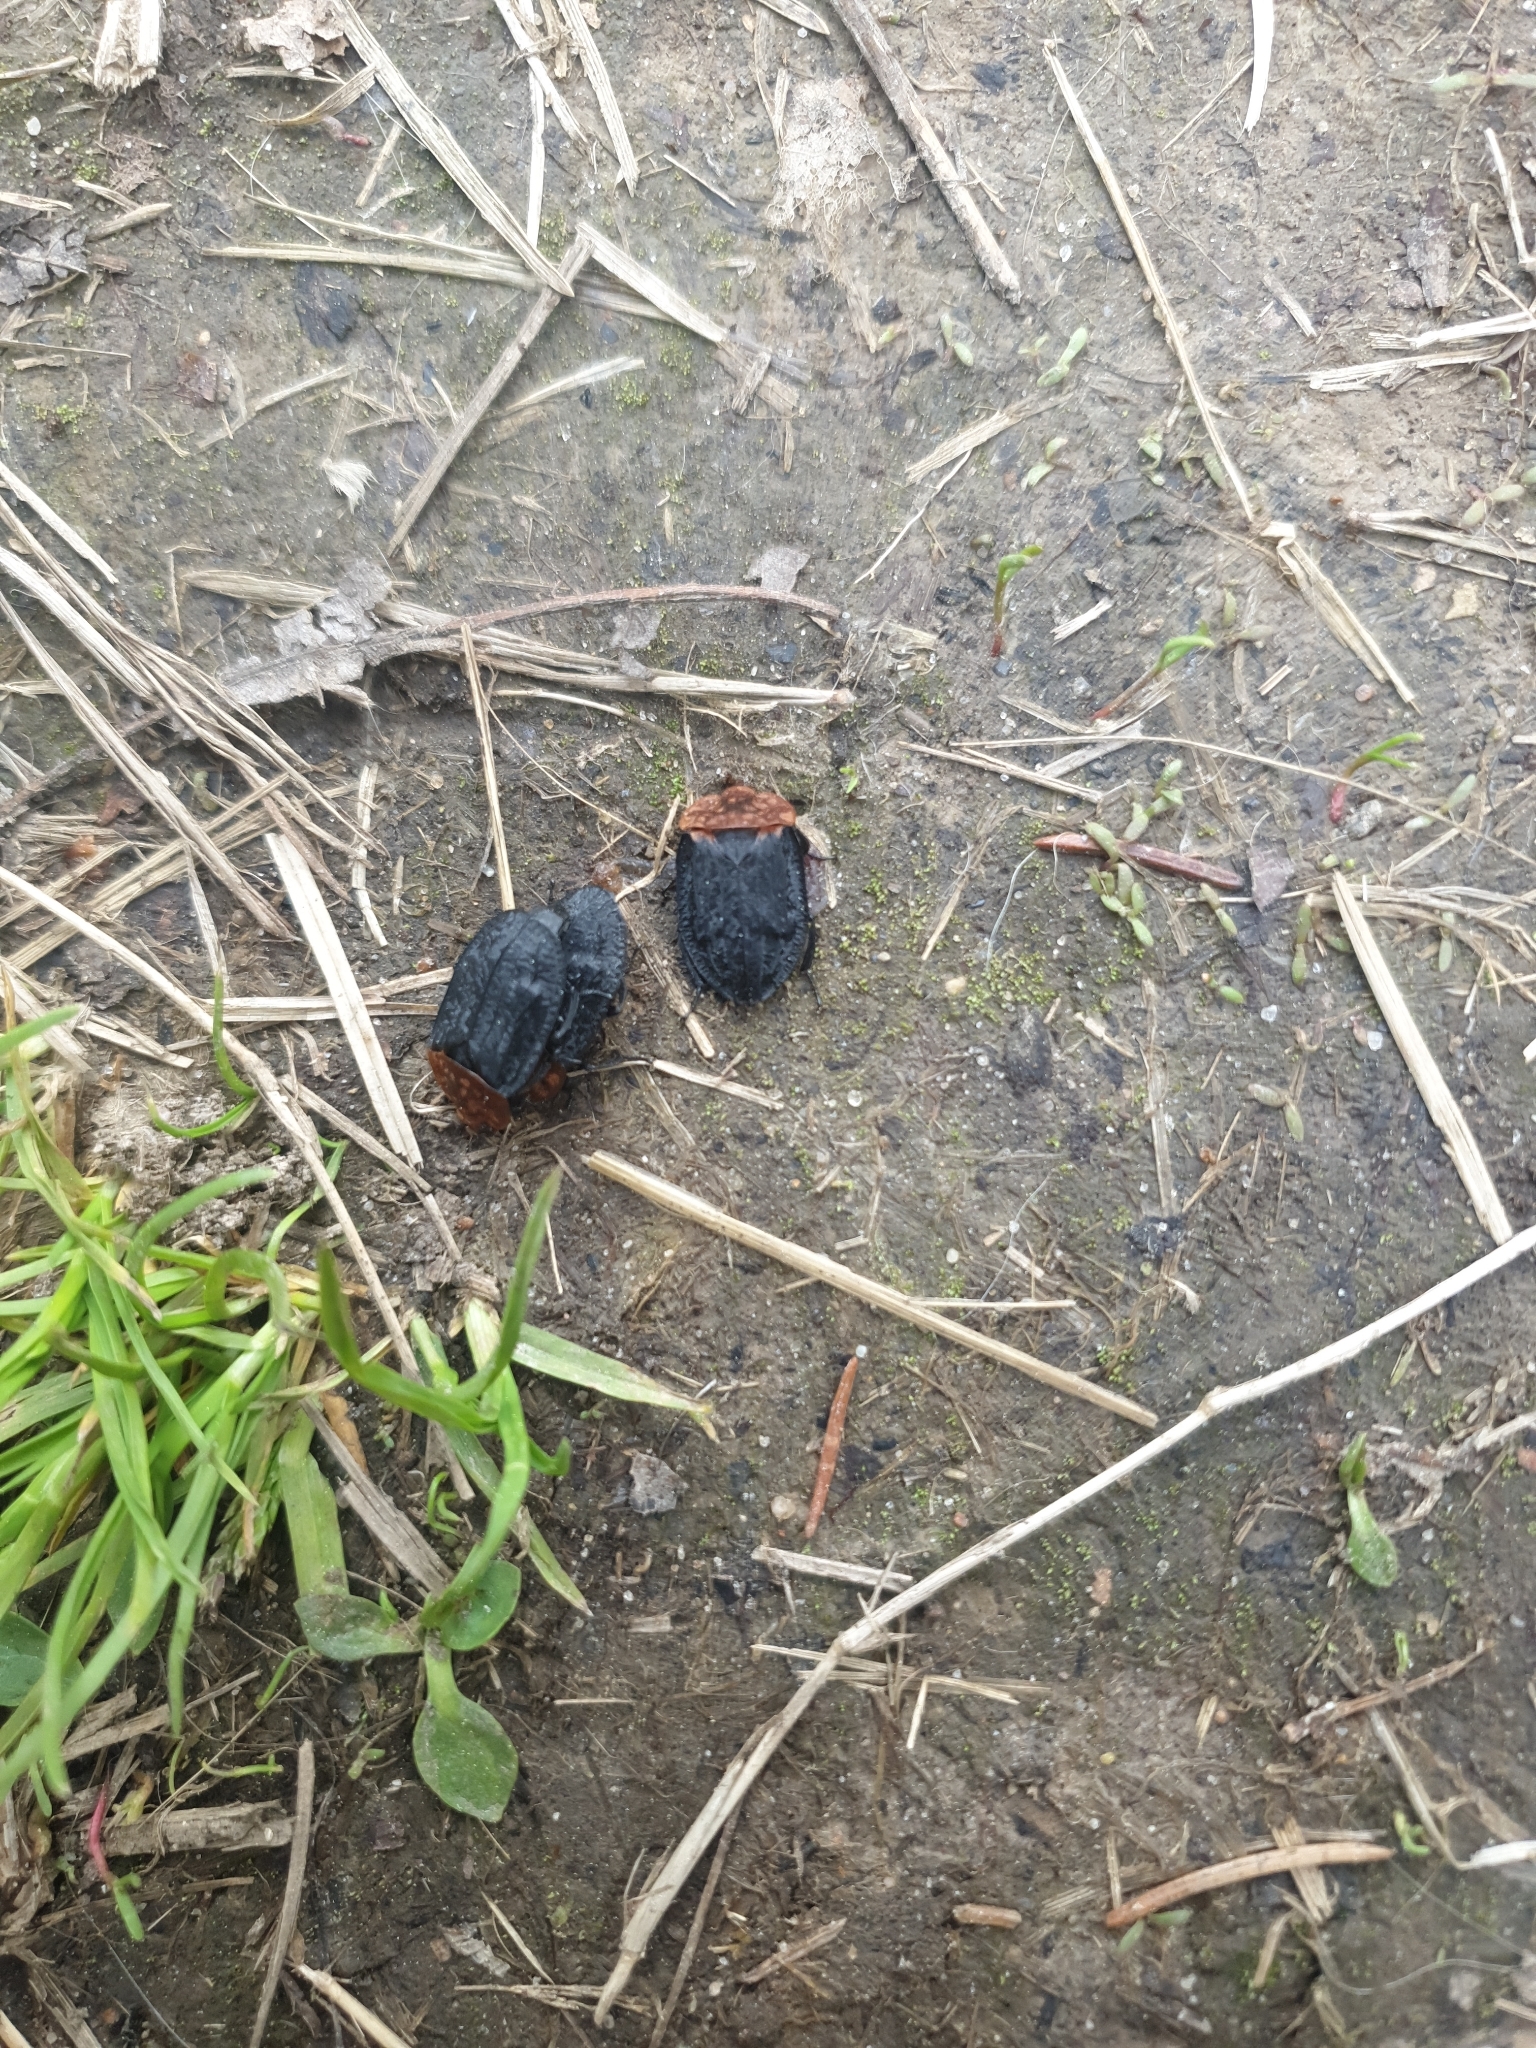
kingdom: Animalia
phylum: Arthropoda
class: Insecta
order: Coleoptera
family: Staphylinidae
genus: Oiceoptoma
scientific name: Oiceoptoma thoracicum
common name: Red-breasted carrion beetle
